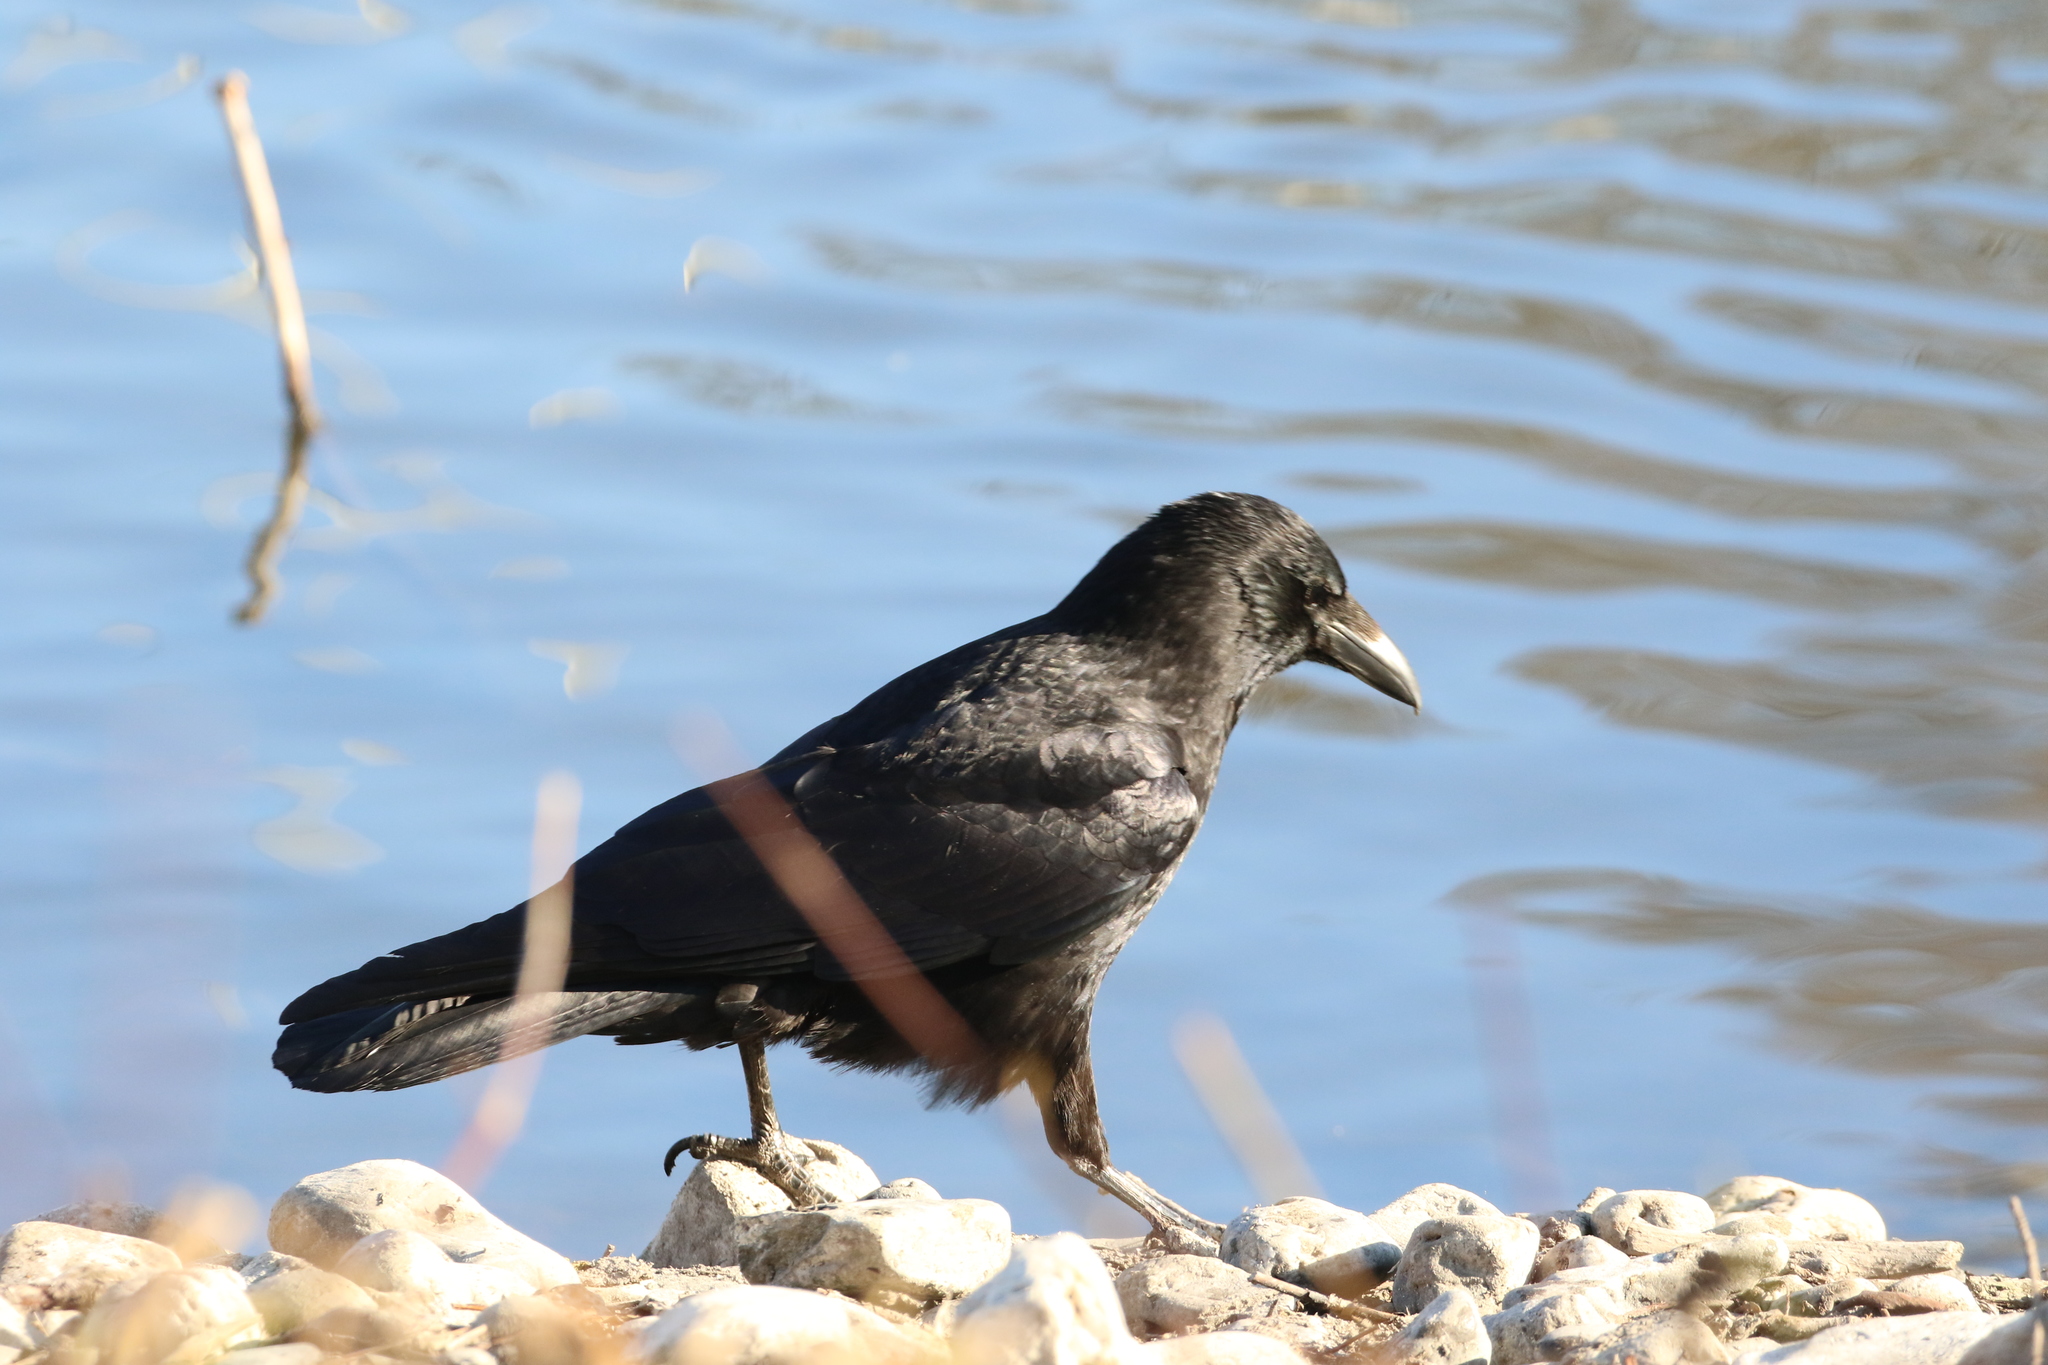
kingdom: Animalia
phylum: Chordata
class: Aves
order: Passeriformes
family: Corvidae
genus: Corvus
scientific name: Corvus corone
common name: Carrion crow
